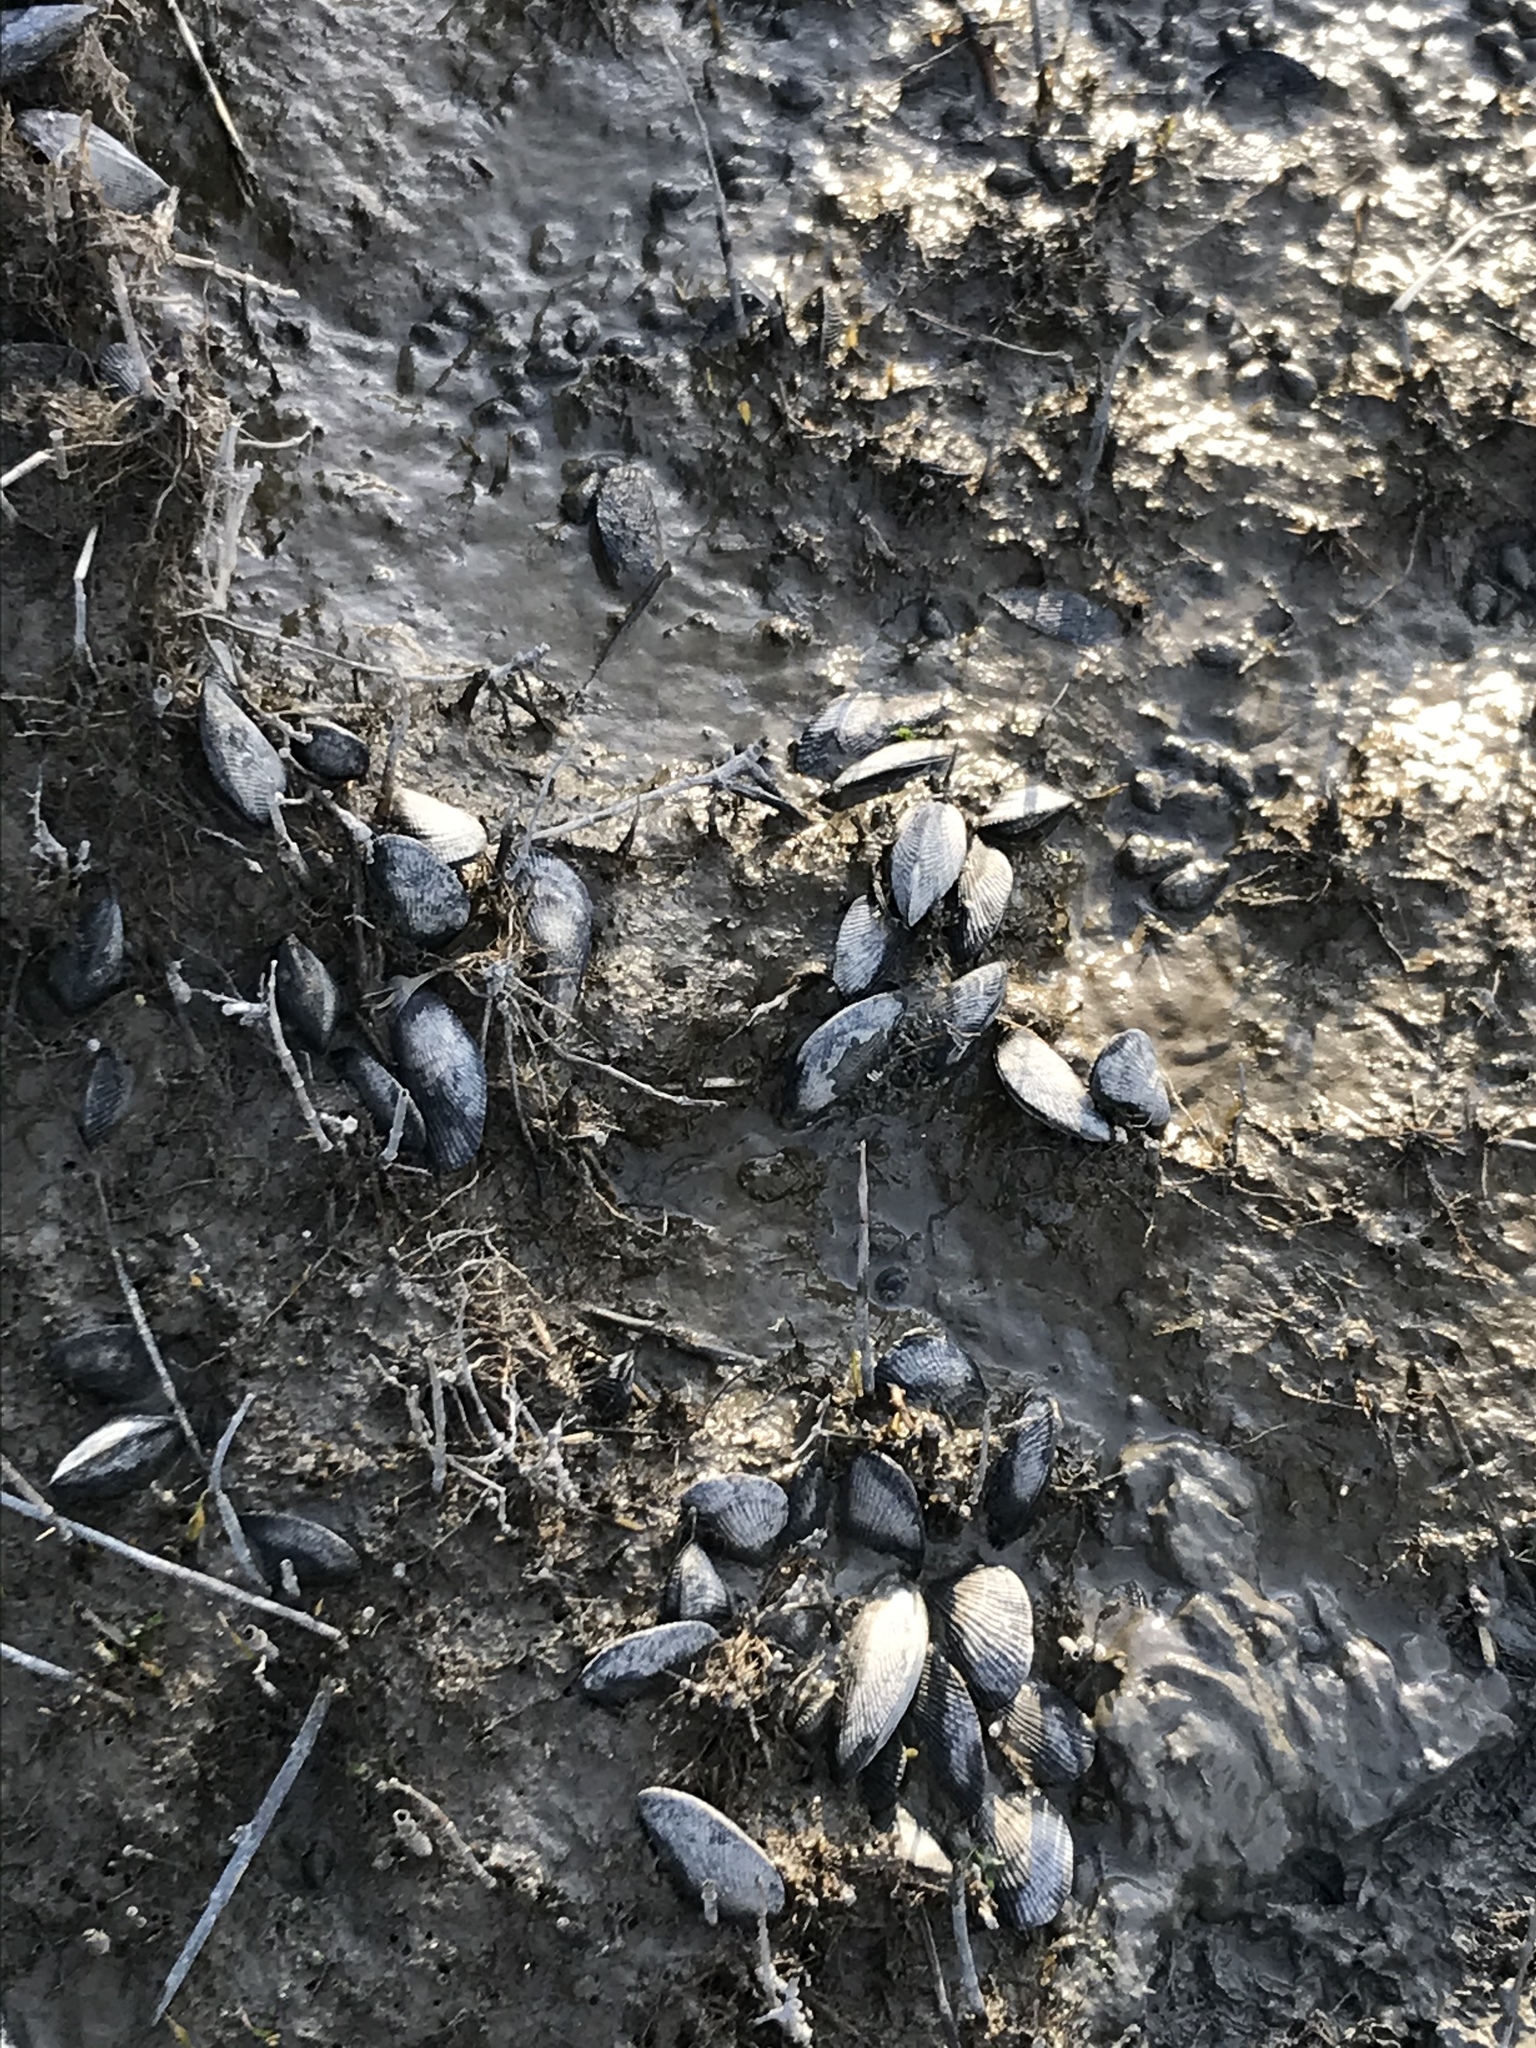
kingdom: Animalia
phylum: Mollusca
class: Bivalvia
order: Mytilida
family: Mytilidae
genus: Geukensia
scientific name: Geukensia demissa
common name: Ribbed mussel
